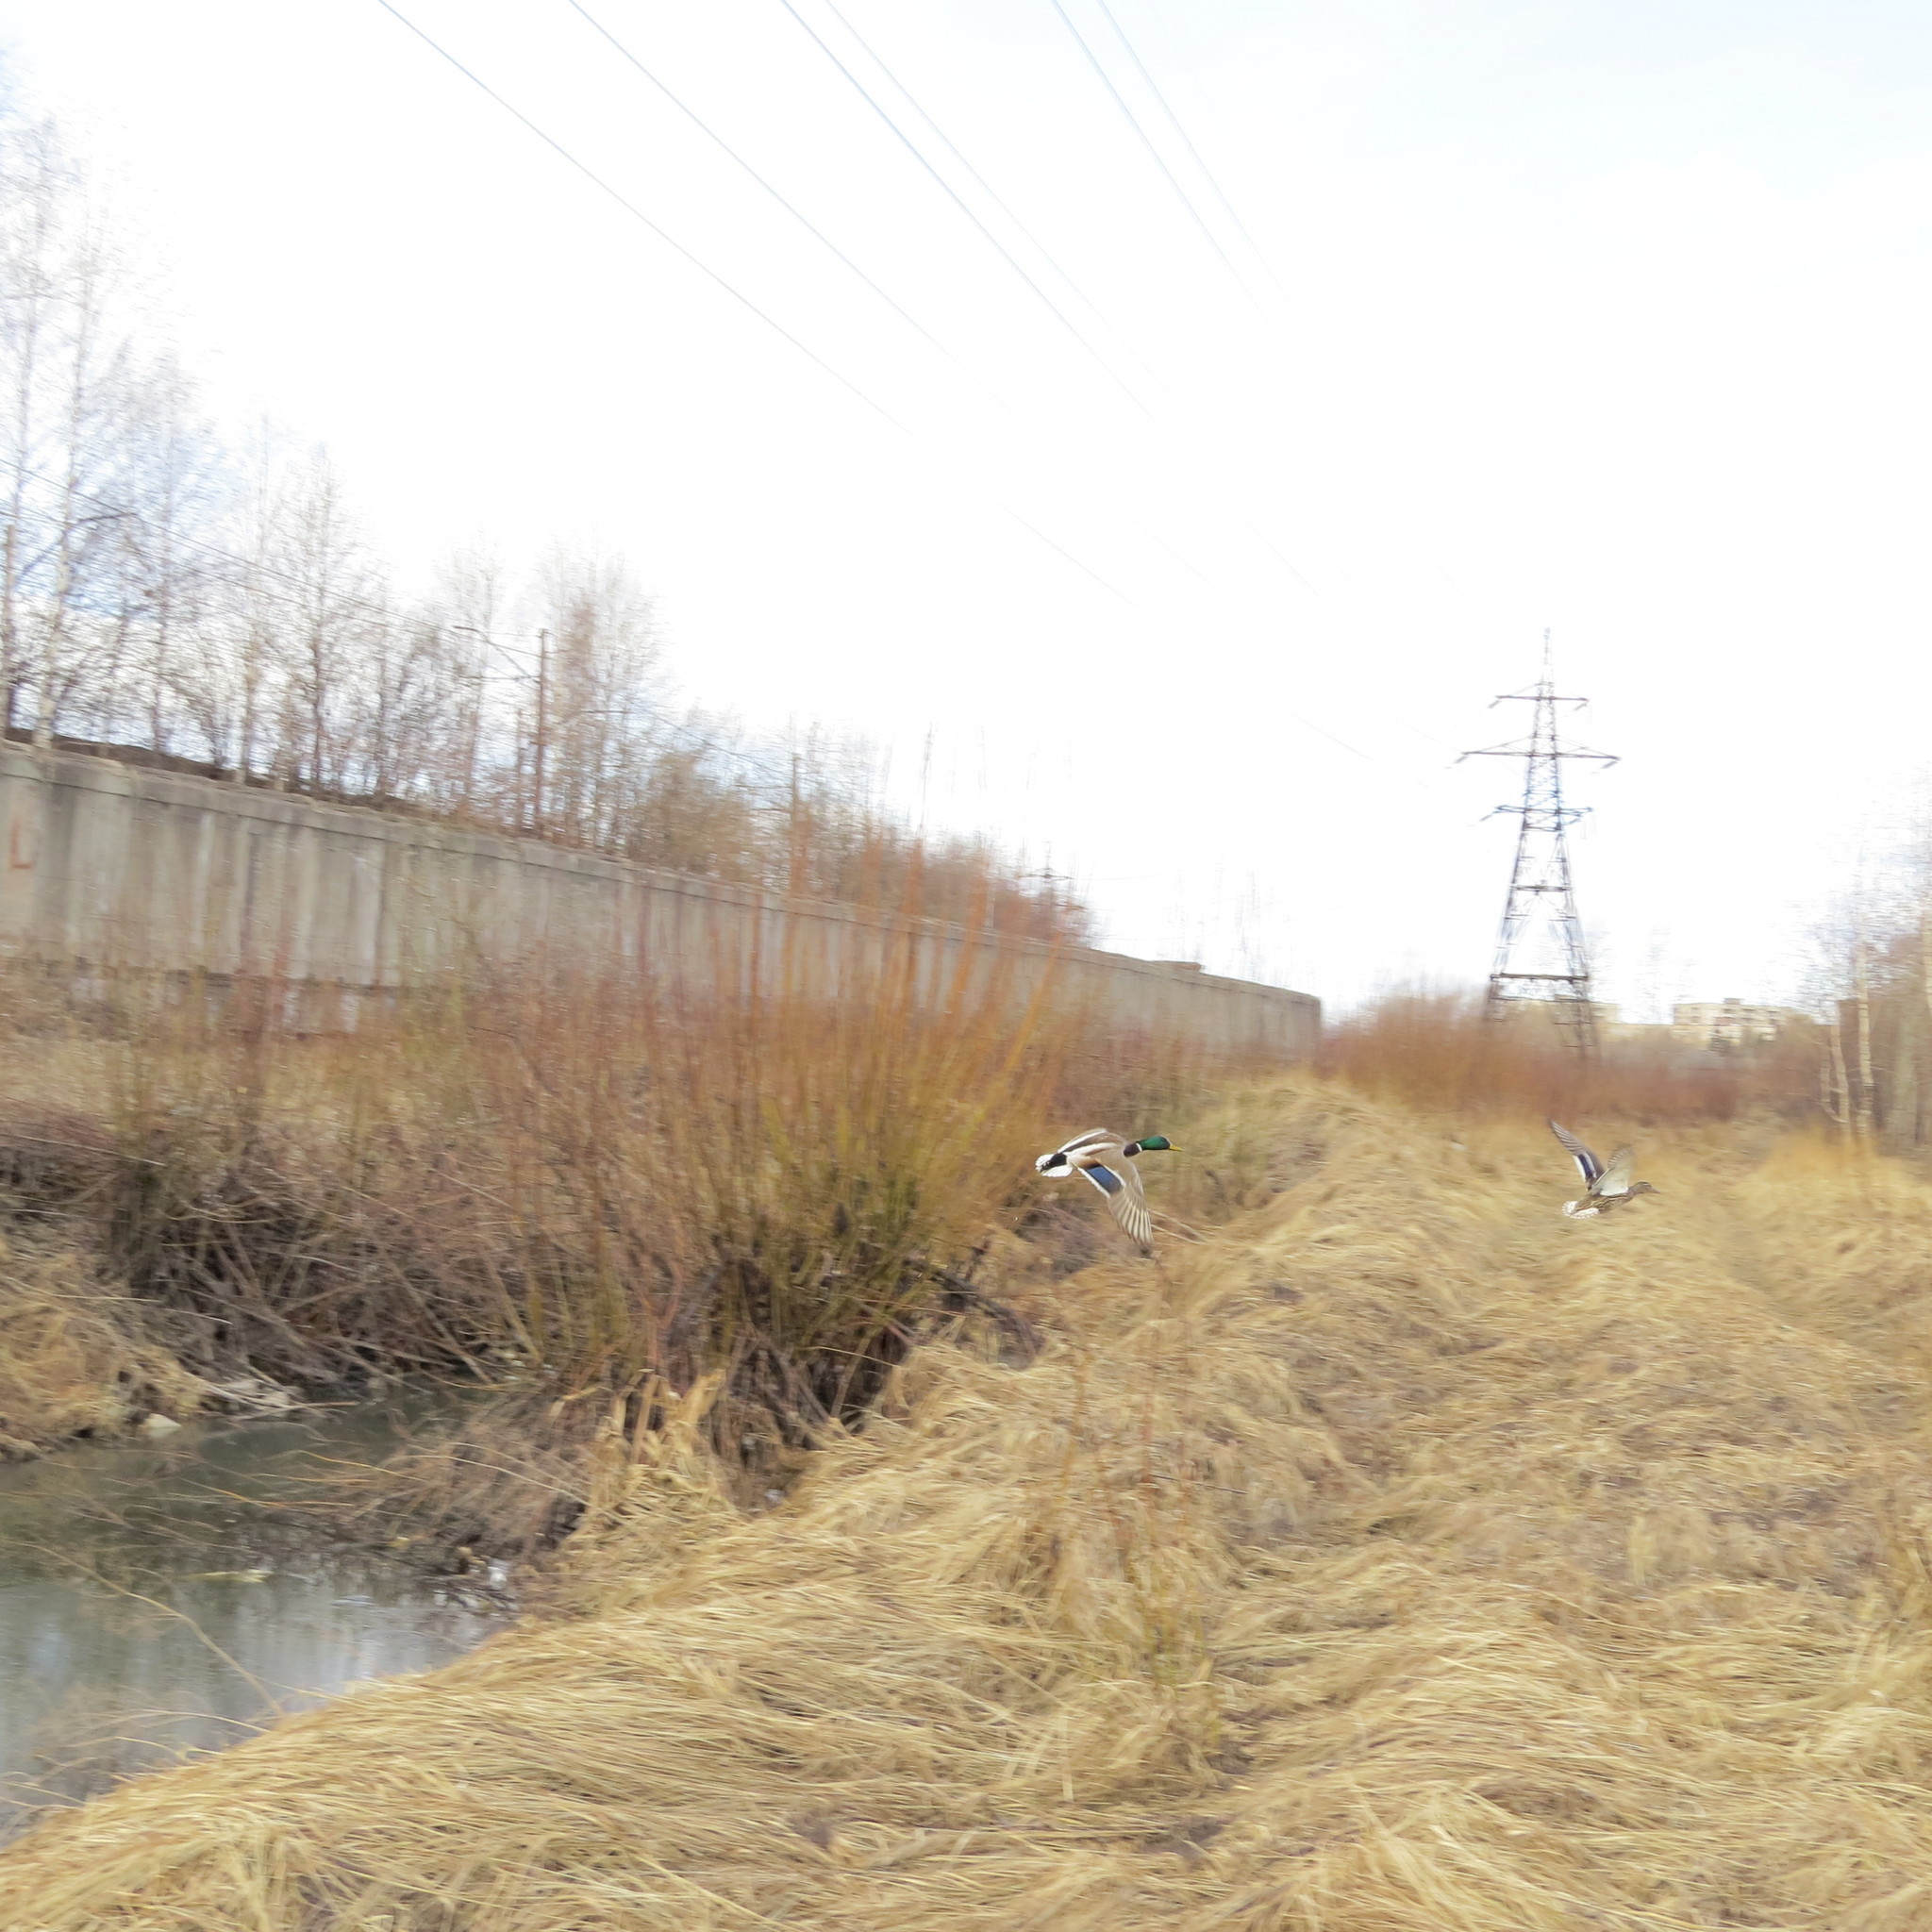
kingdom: Animalia
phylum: Chordata
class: Aves
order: Anseriformes
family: Anatidae
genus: Anas
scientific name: Anas platyrhynchos
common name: Mallard
